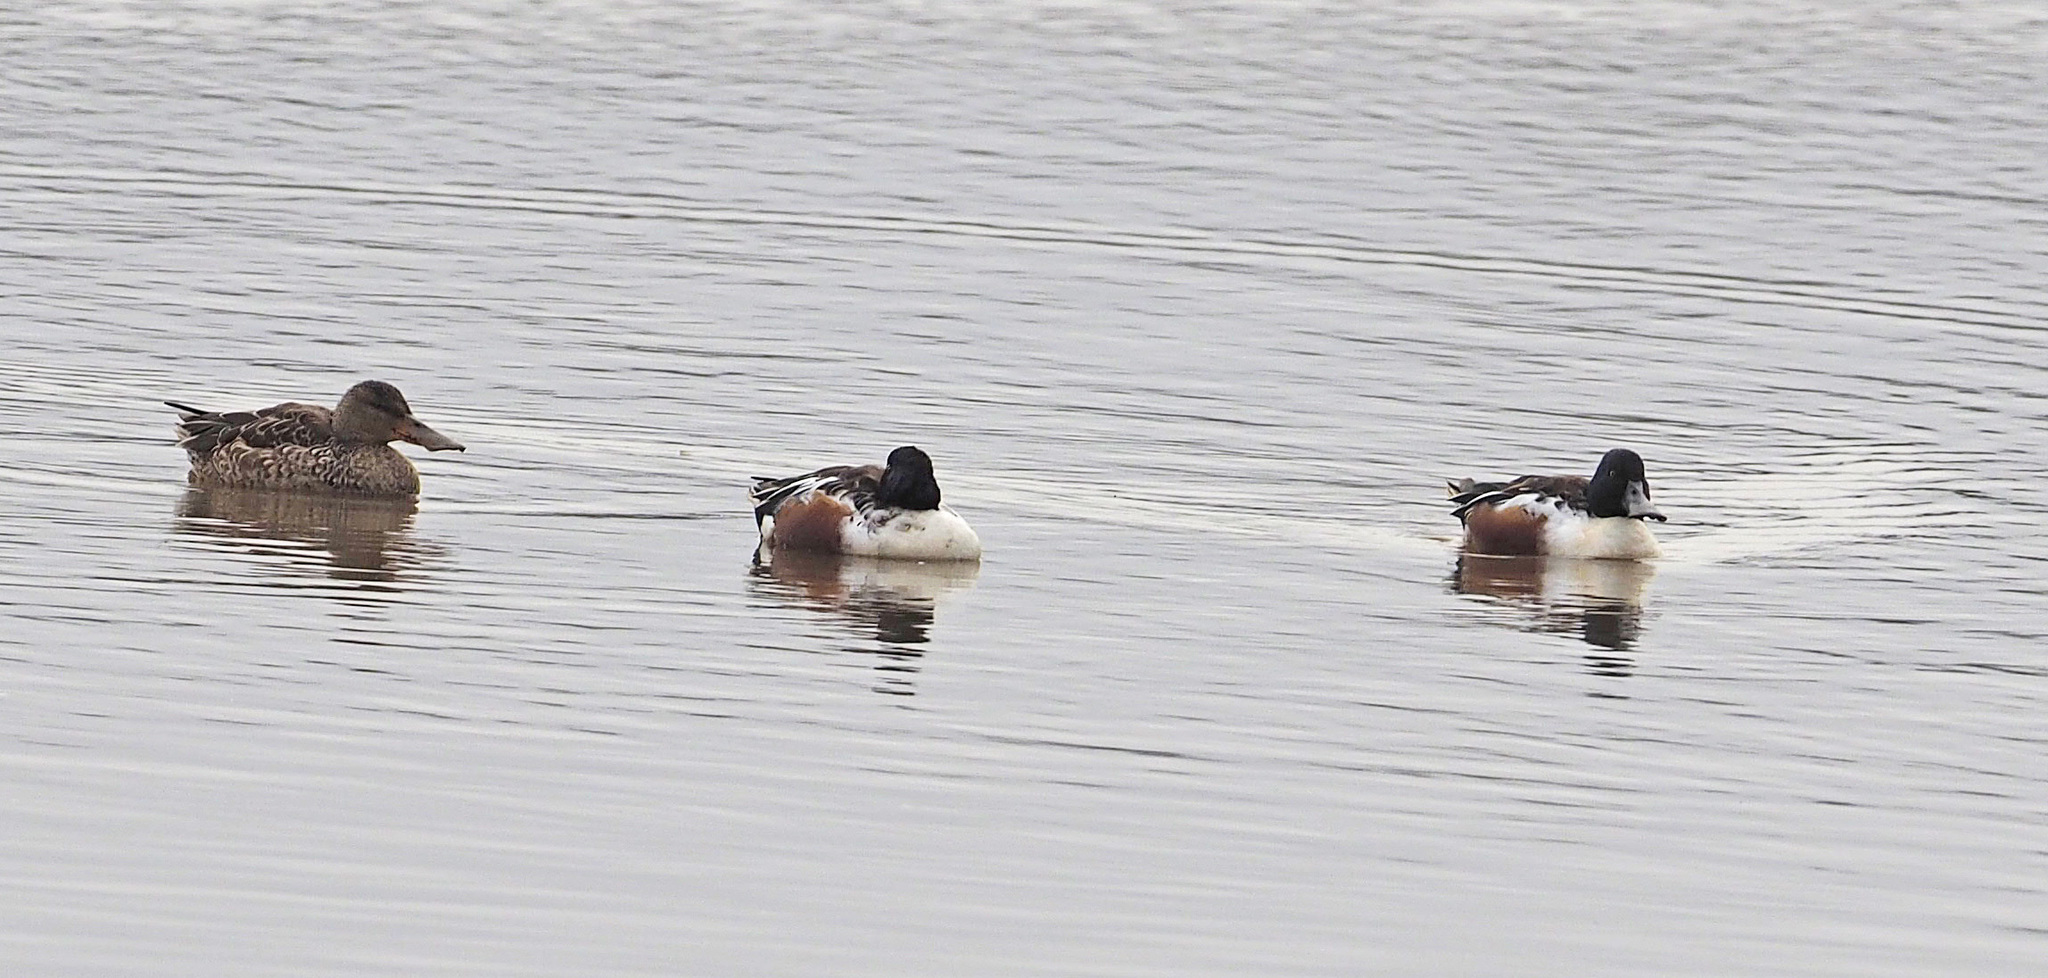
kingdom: Animalia
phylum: Chordata
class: Aves
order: Anseriformes
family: Anatidae
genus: Spatula
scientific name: Spatula clypeata
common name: Northern shoveler
